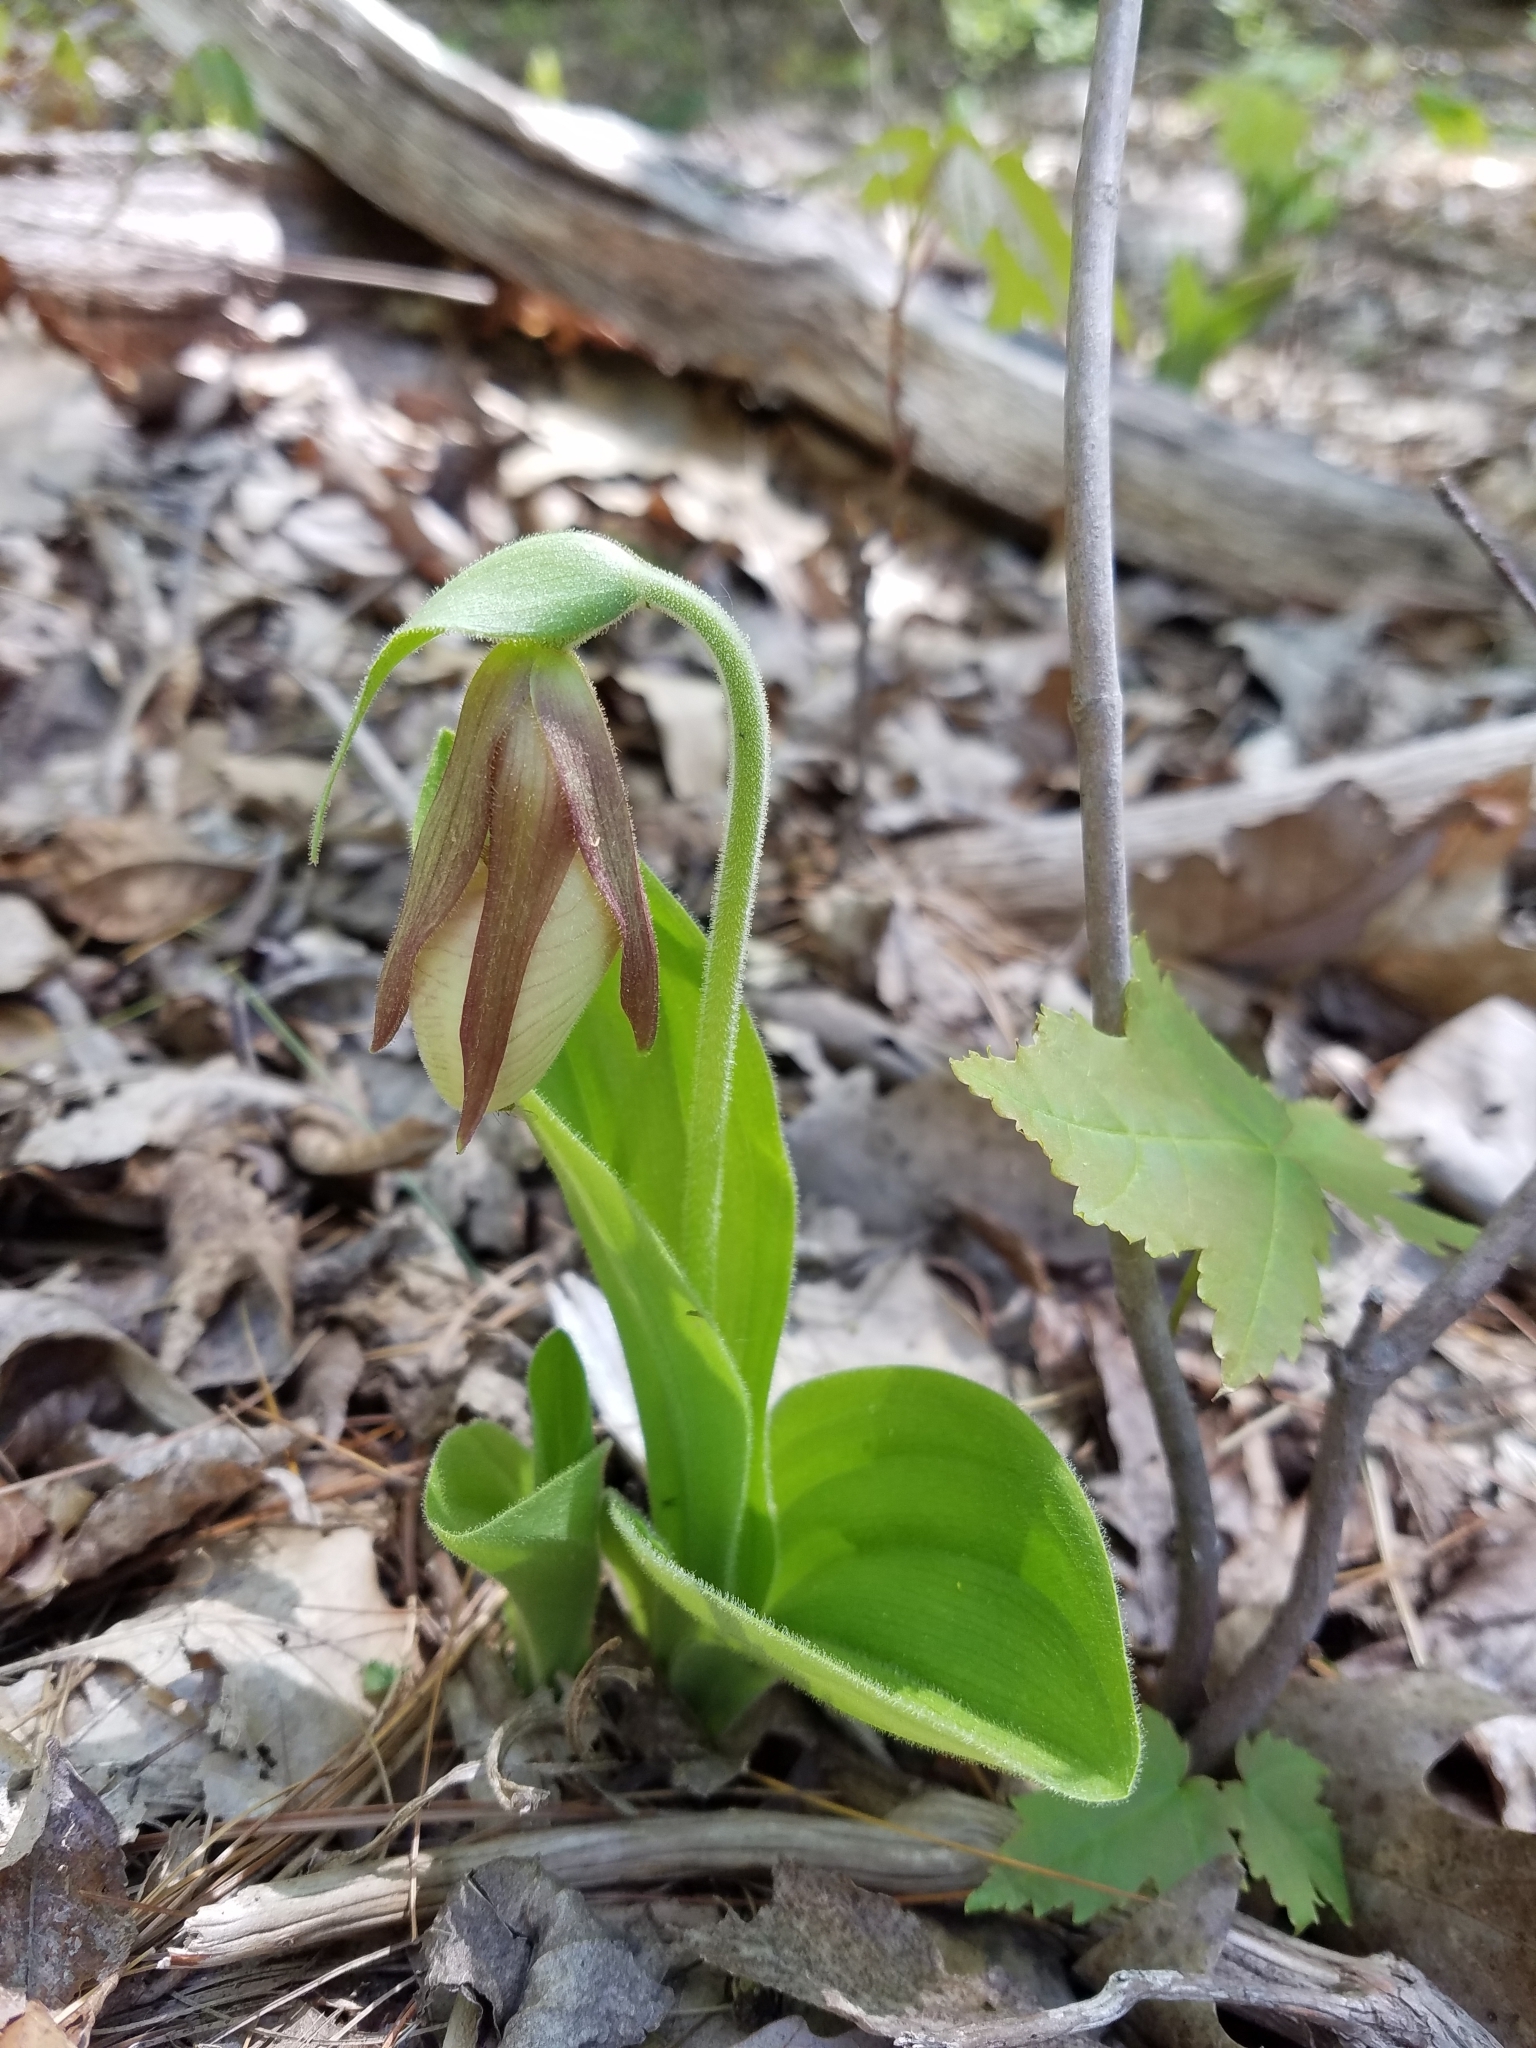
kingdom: Plantae
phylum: Tracheophyta
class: Liliopsida
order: Asparagales
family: Orchidaceae
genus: Cypripedium
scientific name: Cypripedium acaule
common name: Pink lady's-slipper
